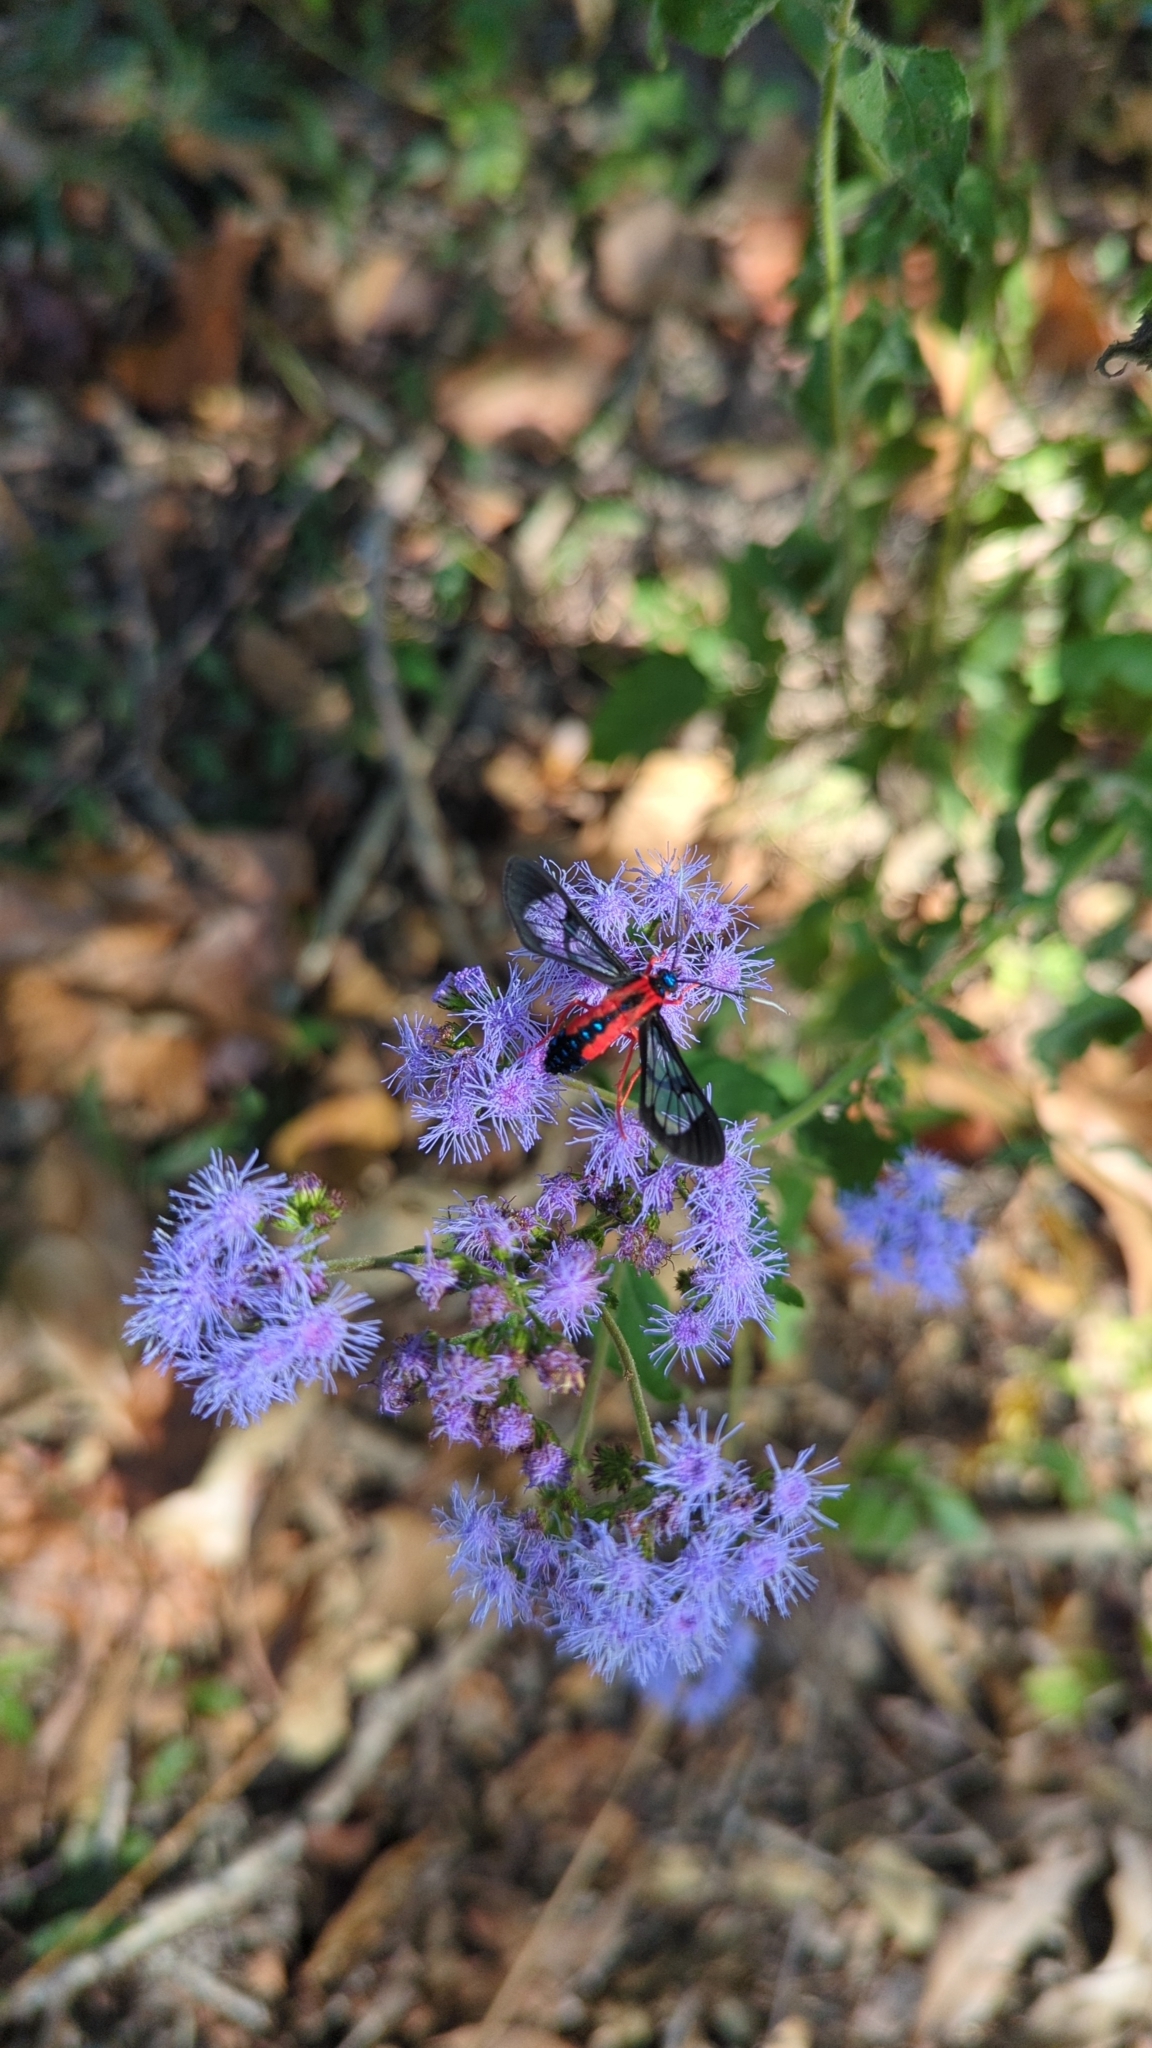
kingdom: Animalia
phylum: Arthropoda
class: Insecta
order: Lepidoptera
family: Erebidae
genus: Cosmosoma
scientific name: Cosmosoma myrodora
